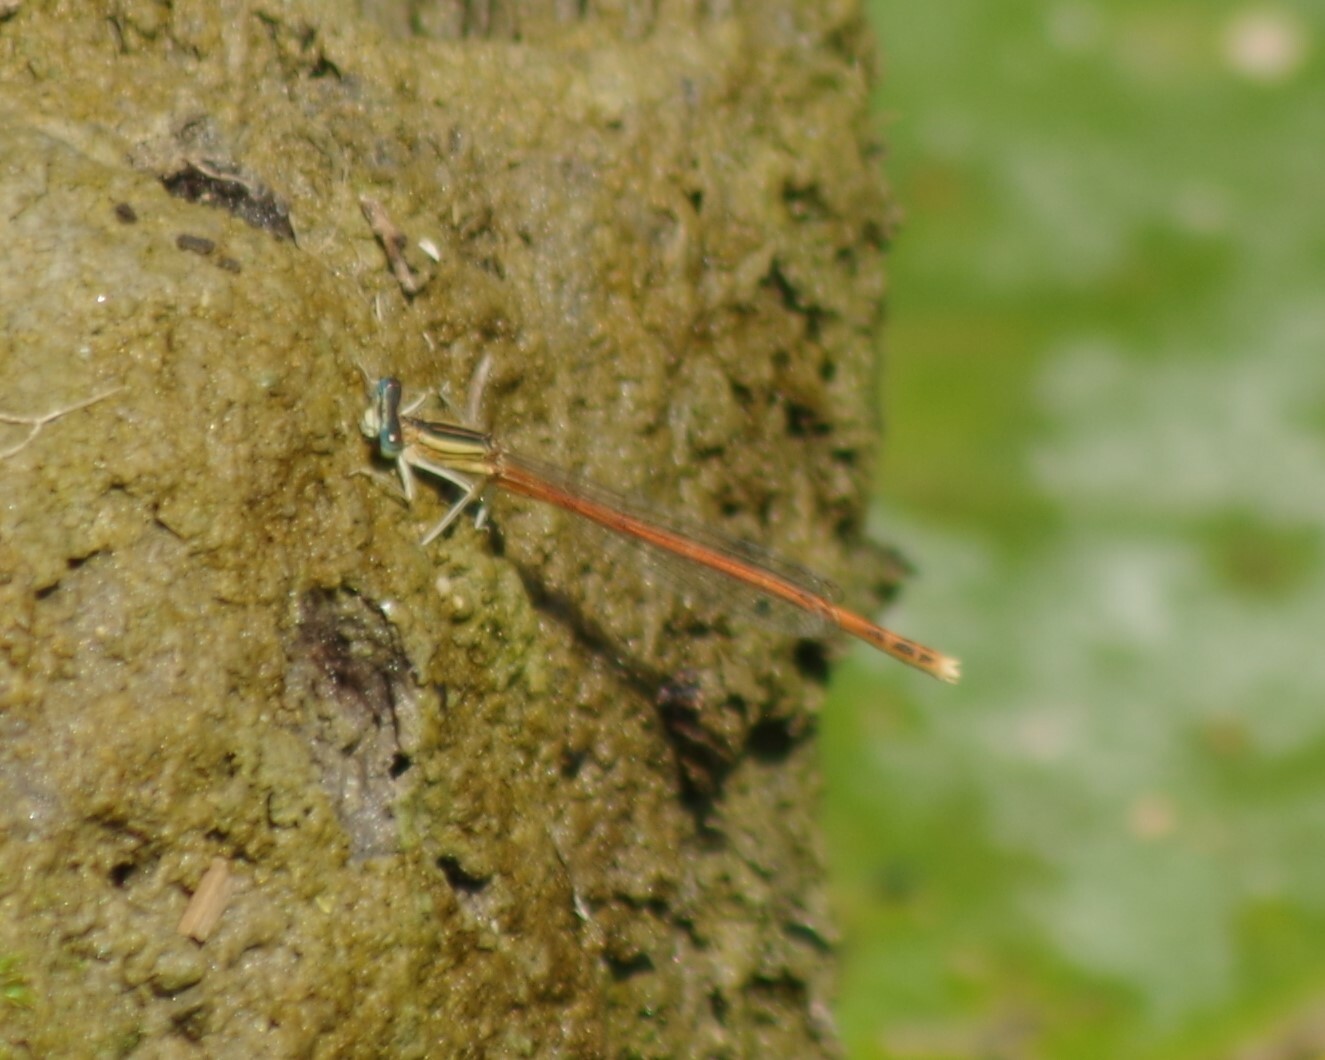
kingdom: Animalia
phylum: Arthropoda
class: Insecta
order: Odonata
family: Platycnemididae
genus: Platycnemis
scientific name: Platycnemis acutipennis
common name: Orange featherleg
